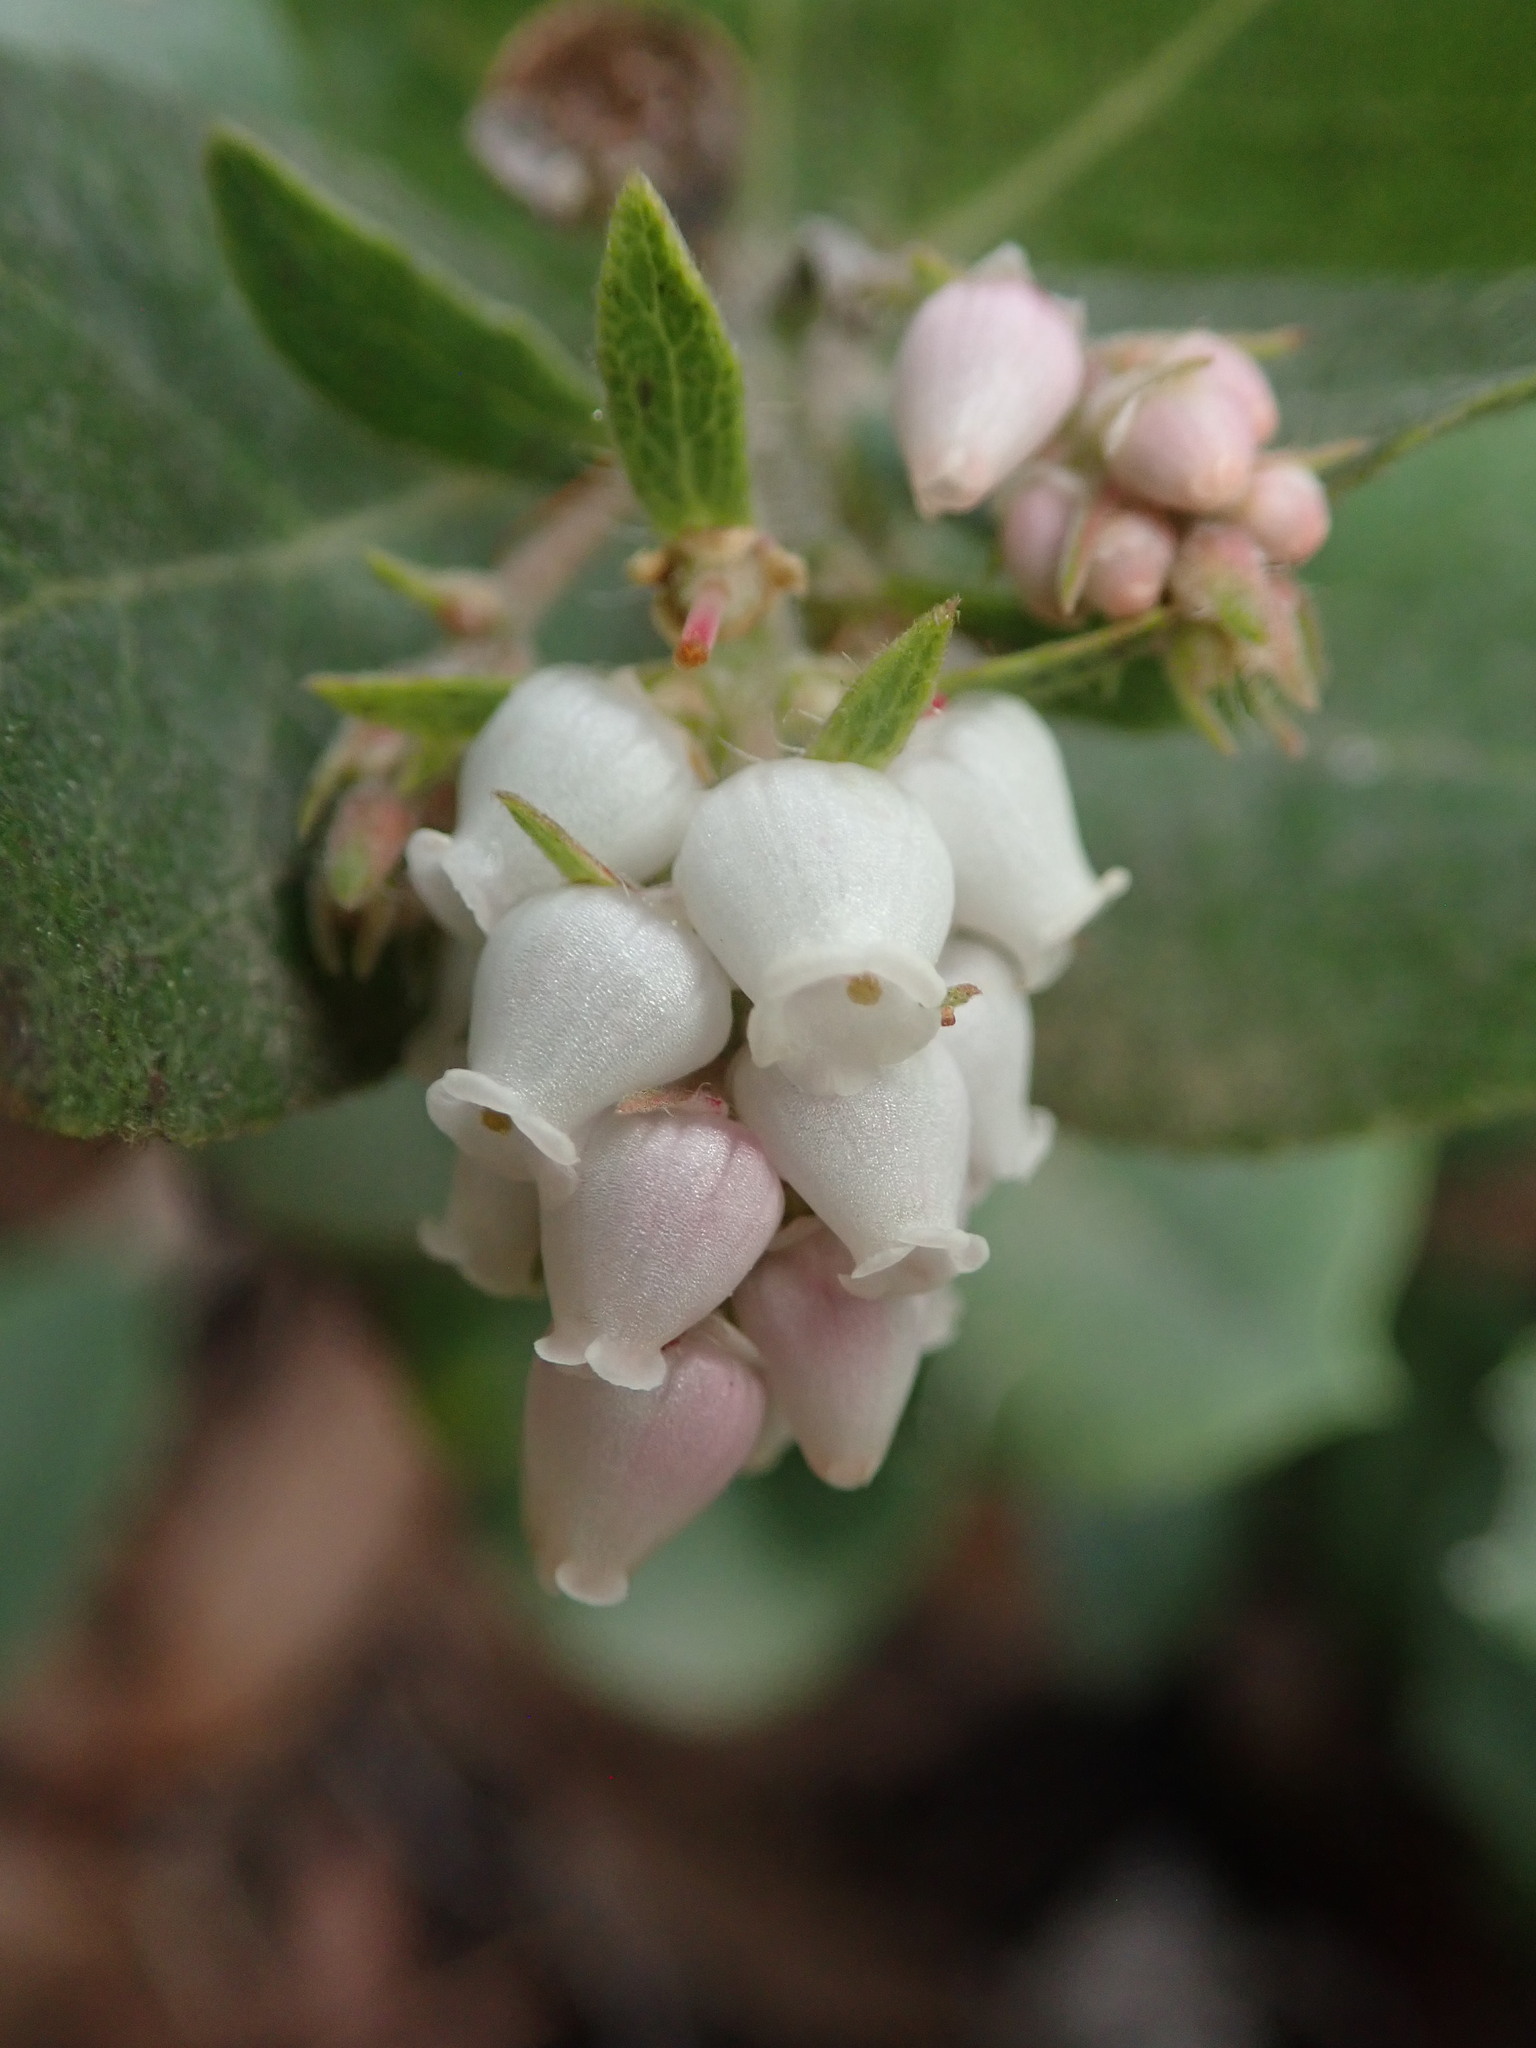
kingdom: Plantae
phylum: Tracheophyta
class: Magnoliopsida
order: Ericales
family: Ericaceae
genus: Arctostaphylos
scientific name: Arctostaphylos crustacea
